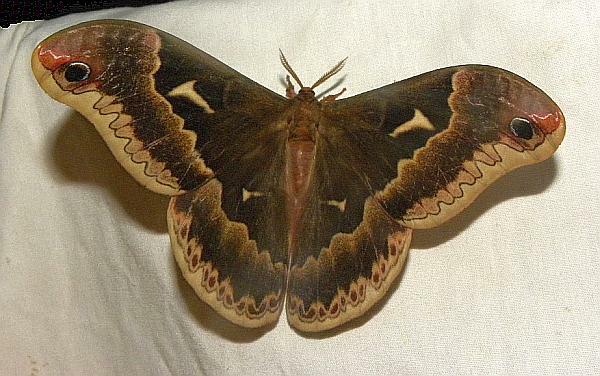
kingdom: Animalia
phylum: Arthropoda
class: Insecta
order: Lepidoptera
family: Saturniidae
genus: Callosamia
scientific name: Callosamia angulifera
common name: Tulip tree silkmoth
